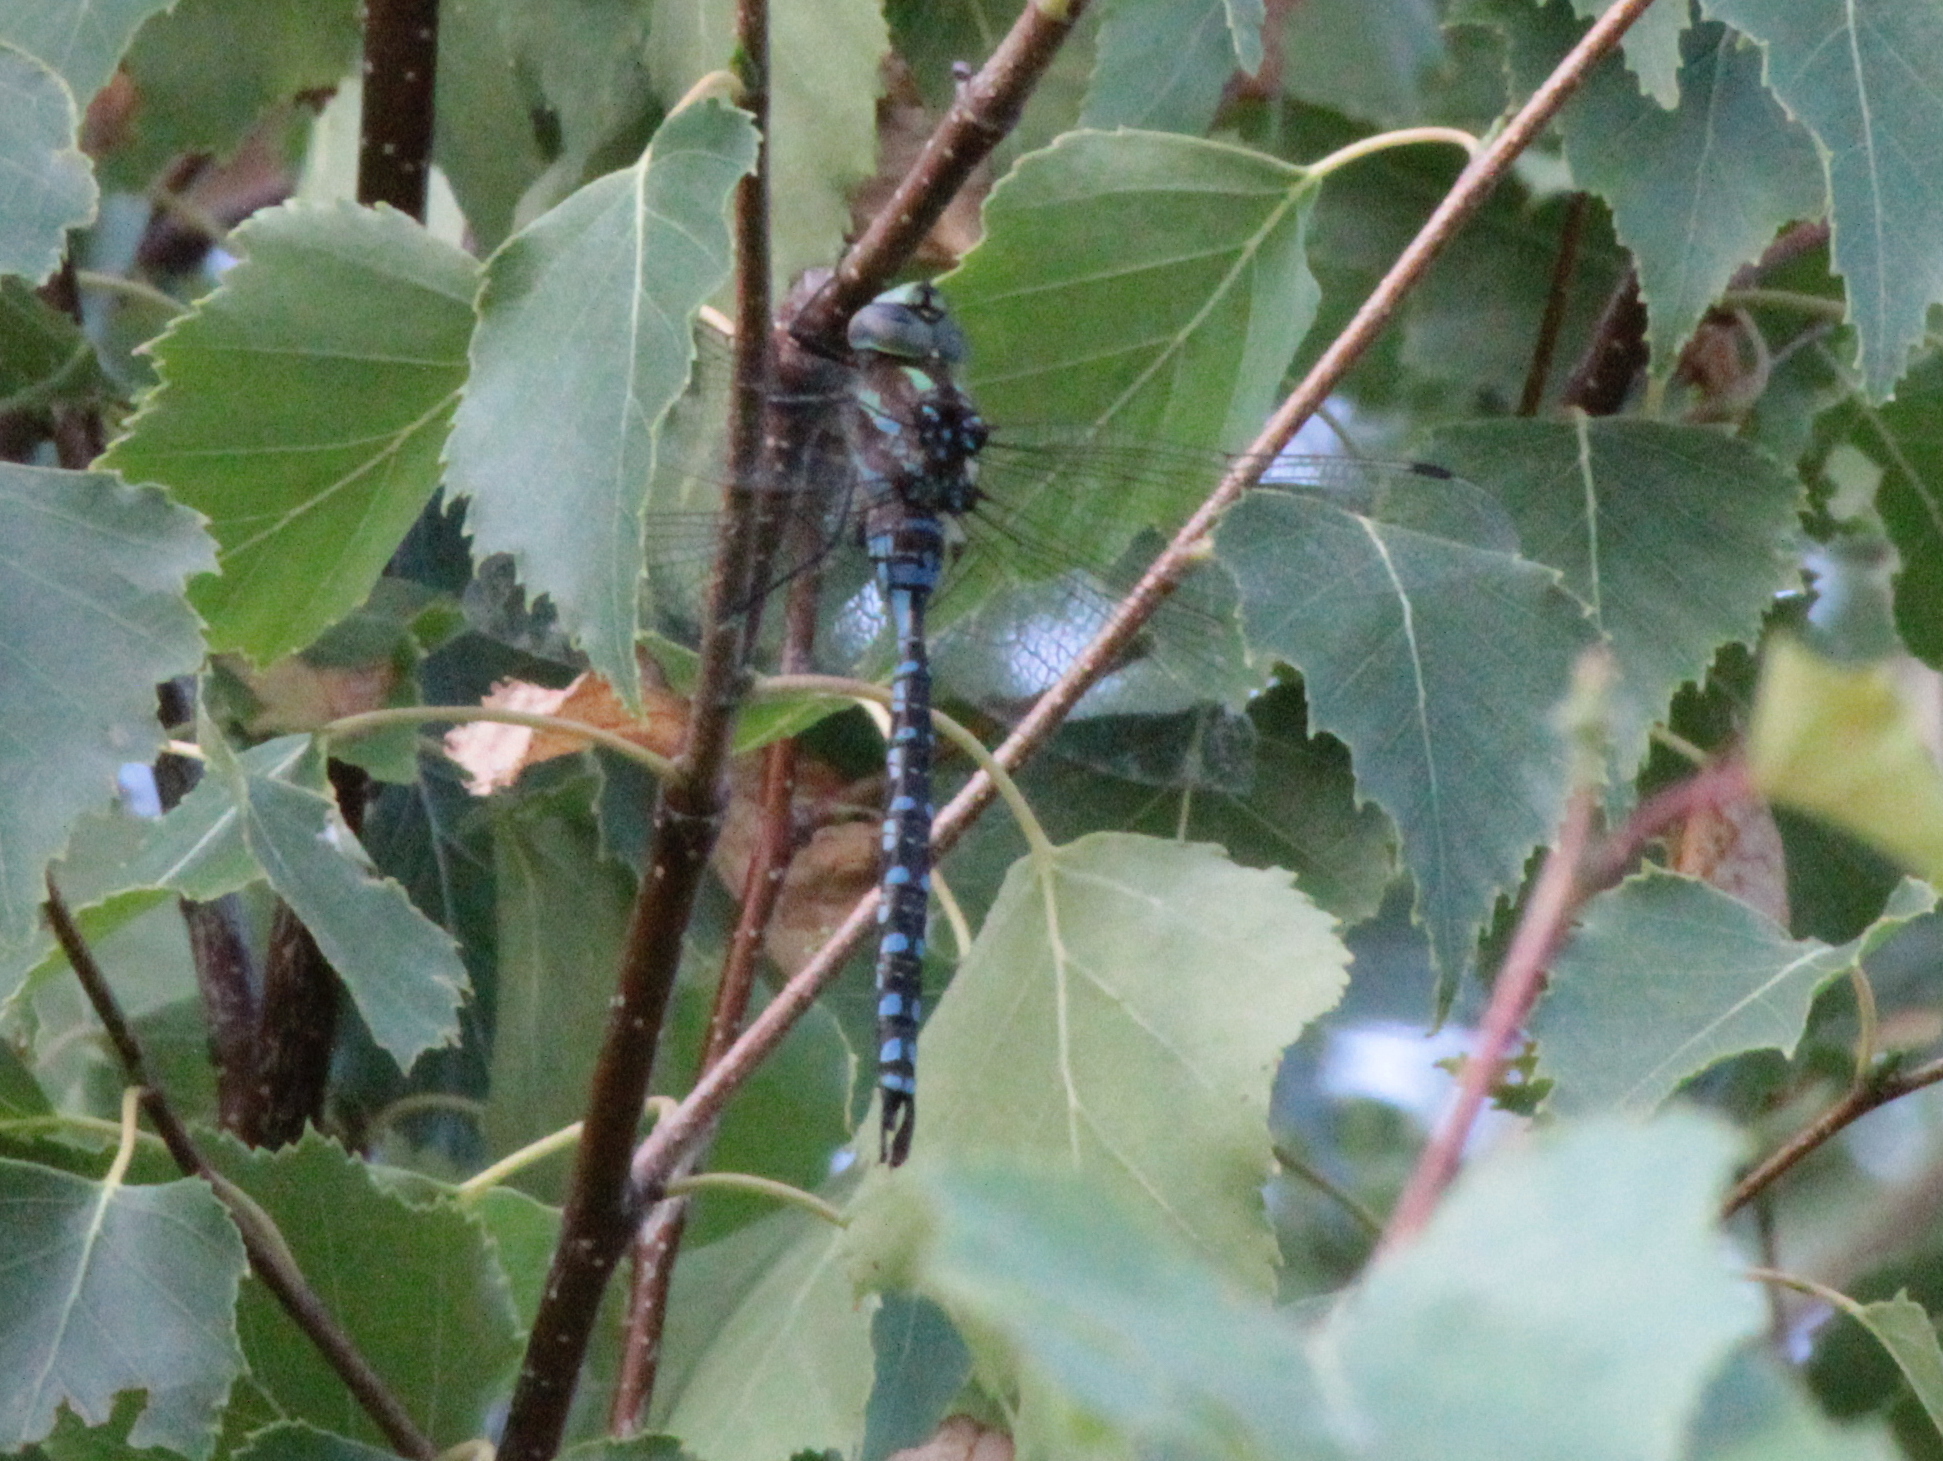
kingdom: Animalia
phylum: Arthropoda
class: Insecta
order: Odonata
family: Aeshnidae
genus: Aeshna
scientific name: Aeshna constricta
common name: Lance-tipped darner
